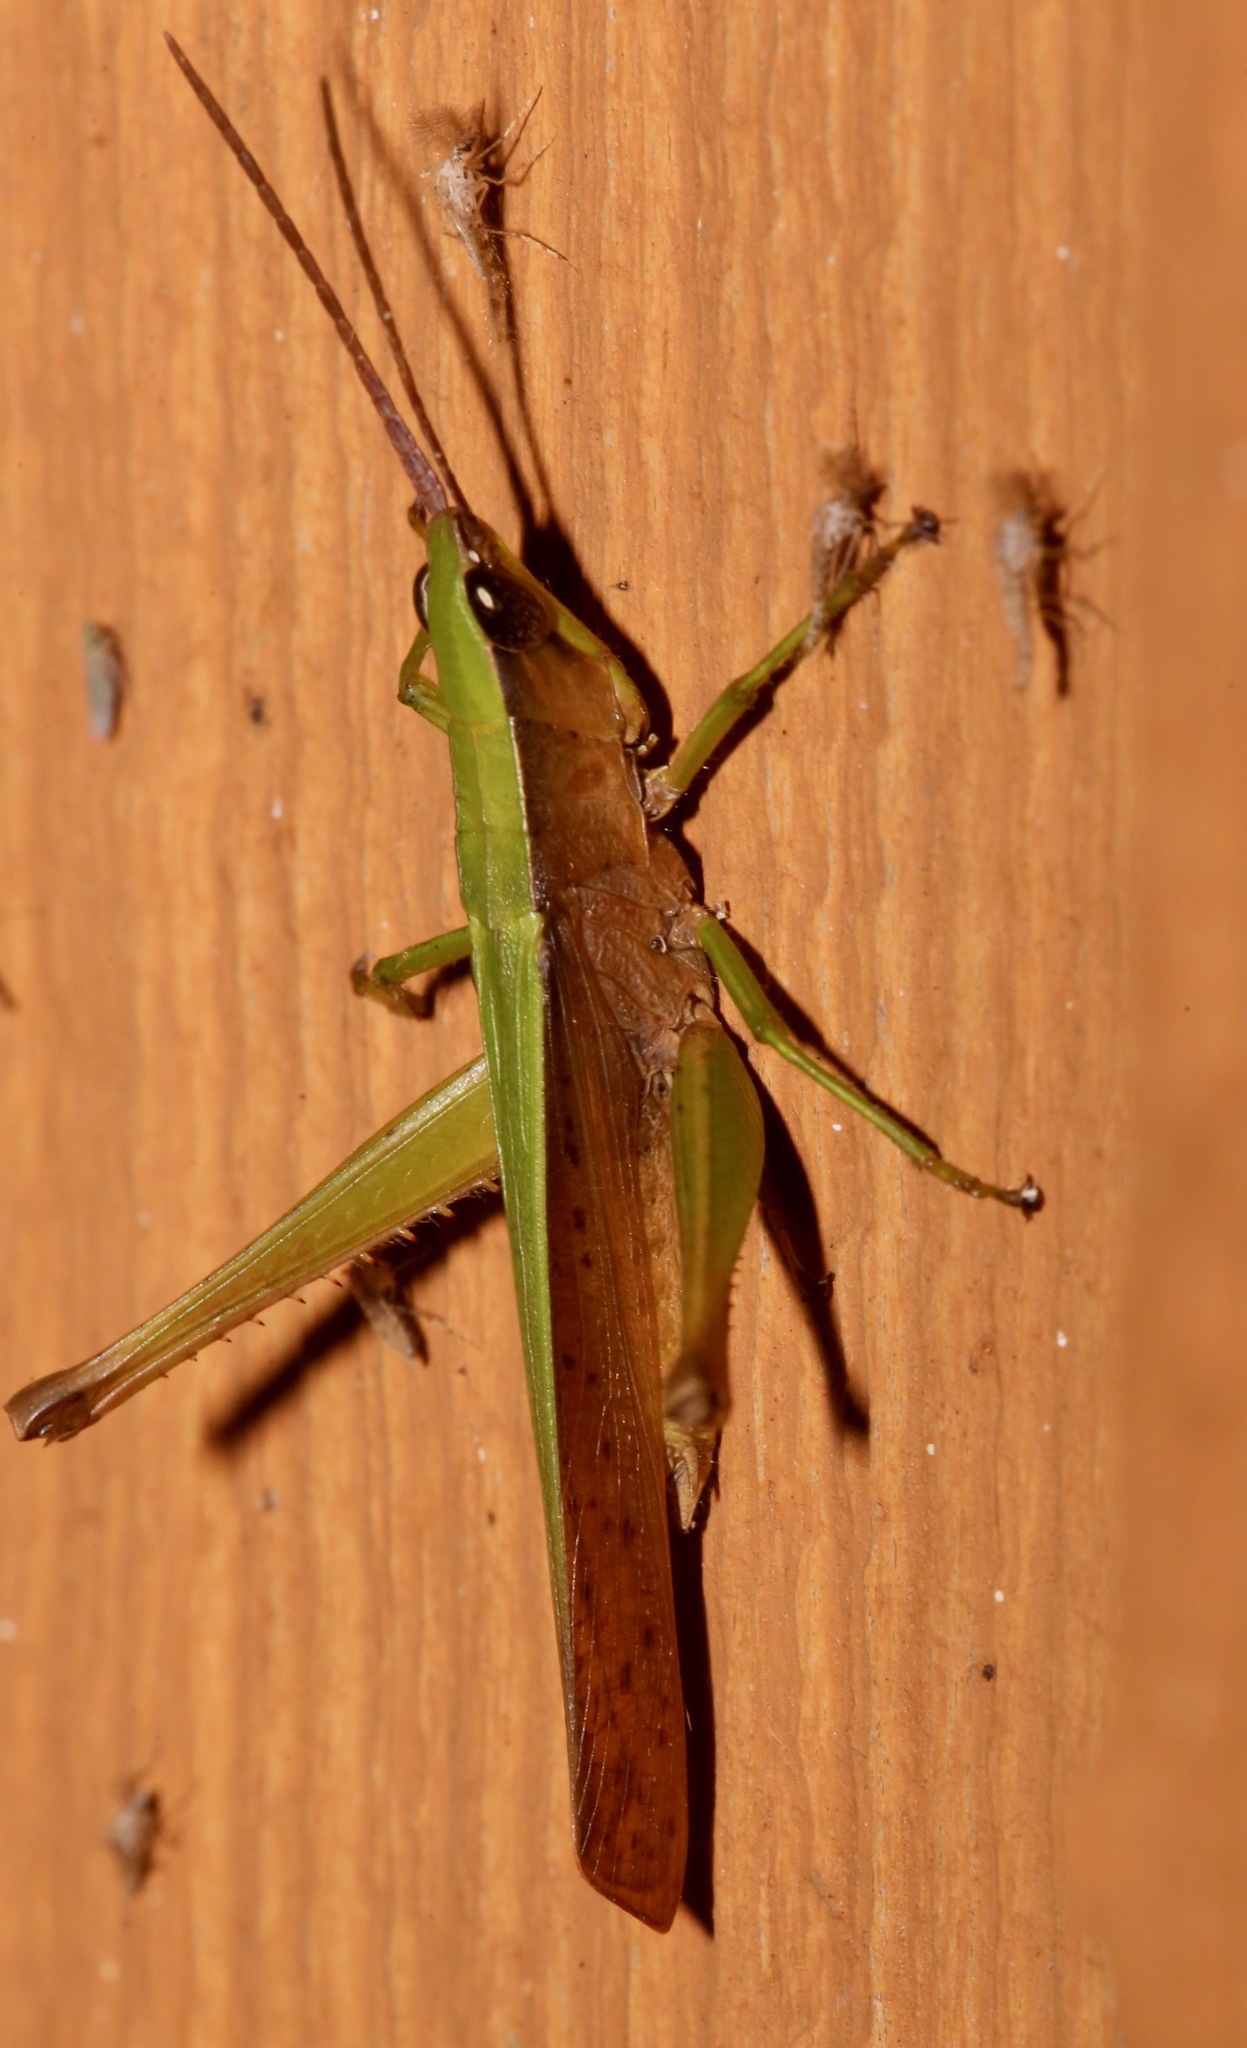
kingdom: Animalia
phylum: Arthropoda
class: Insecta
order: Orthoptera
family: Acrididae
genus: Metaleptea
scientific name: Metaleptea brevicornis
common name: Clipped-wing grasshopper
